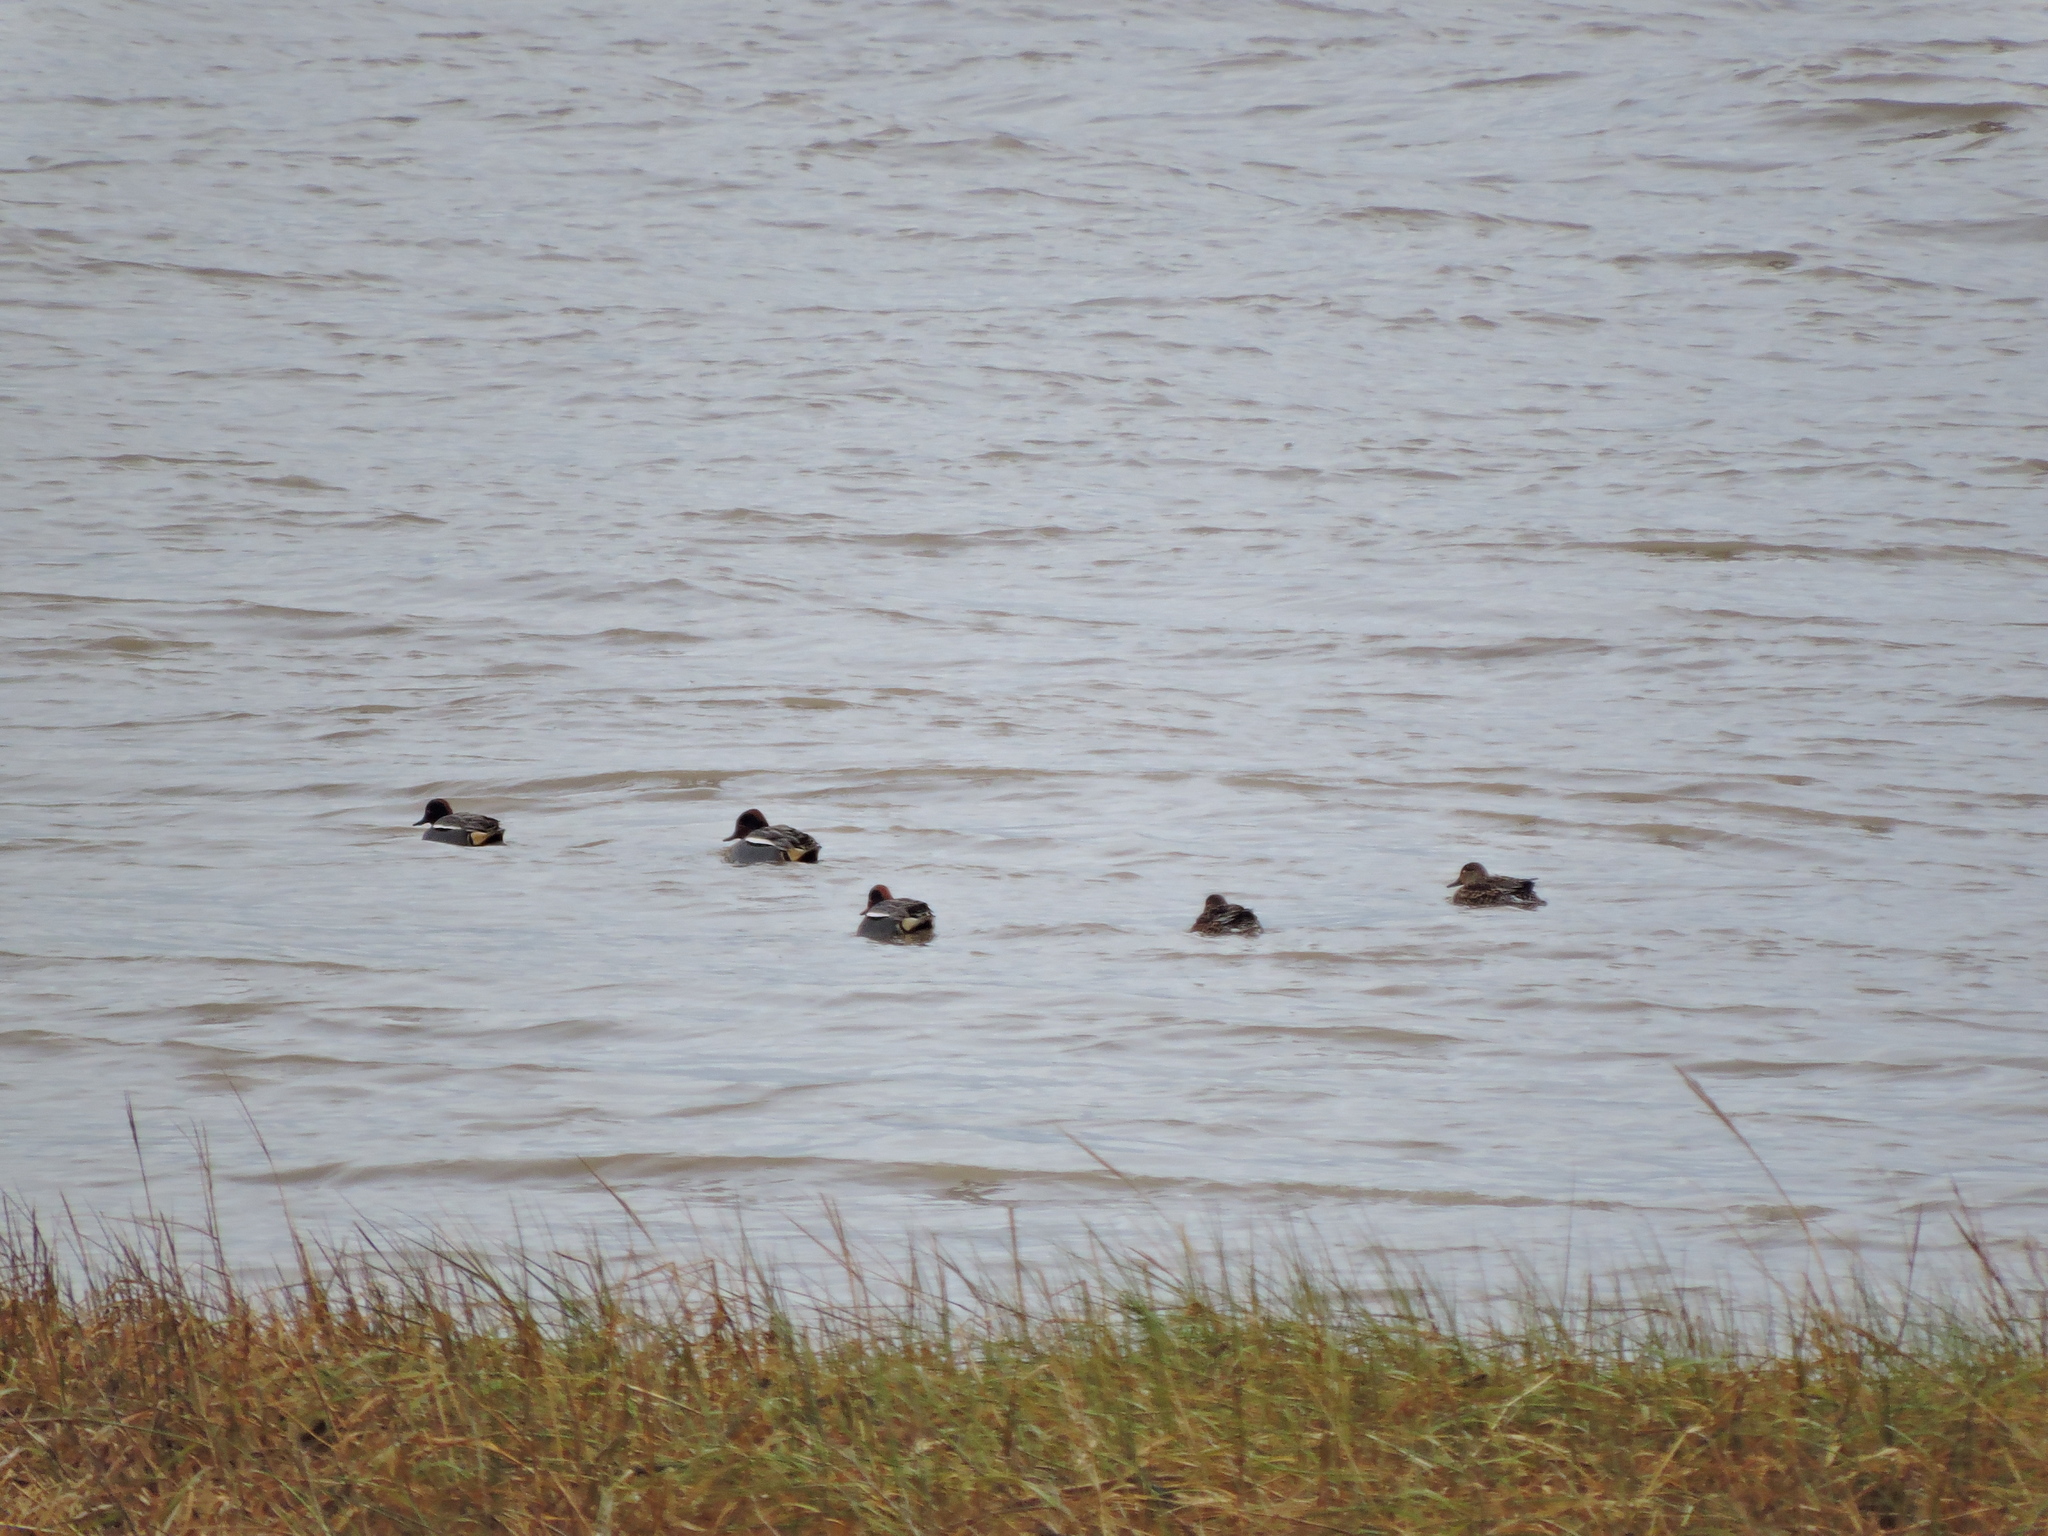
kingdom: Animalia
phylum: Chordata
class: Aves
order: Anseriformes
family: Anatidae
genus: Anas
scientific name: Anas crecca
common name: Eurasian teal
